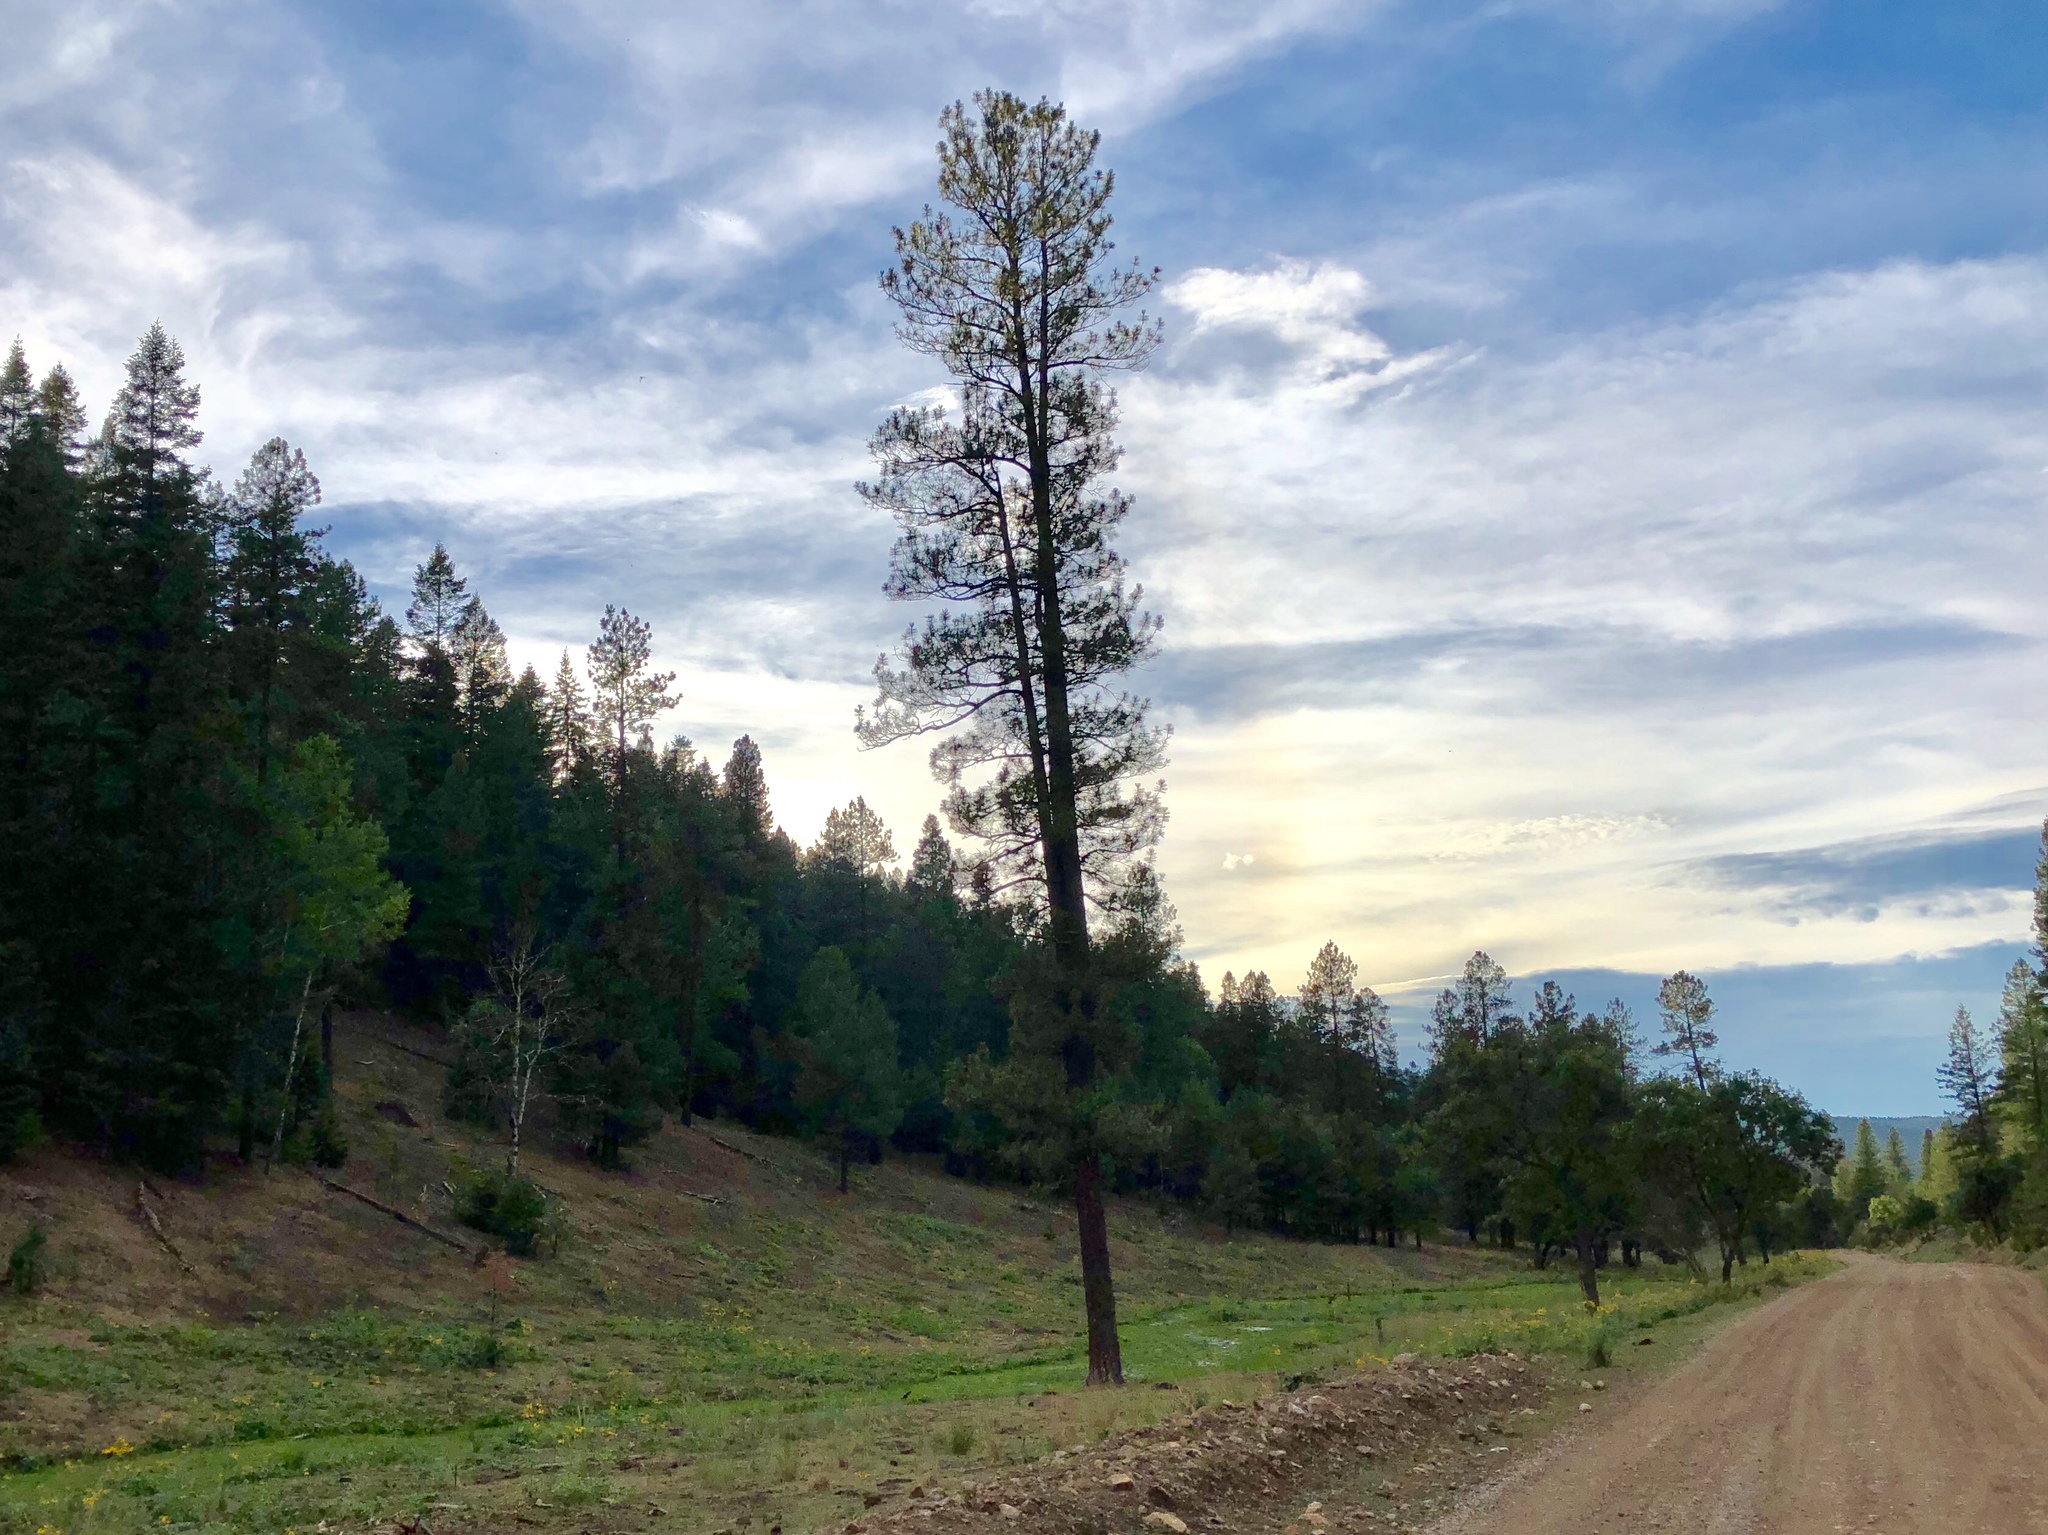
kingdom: Plantae
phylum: Tracheophyta
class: Pinopsida
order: Pinales
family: Pinaceae
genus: Pinus
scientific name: Pinus ponderosa
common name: Western yellow-pine
